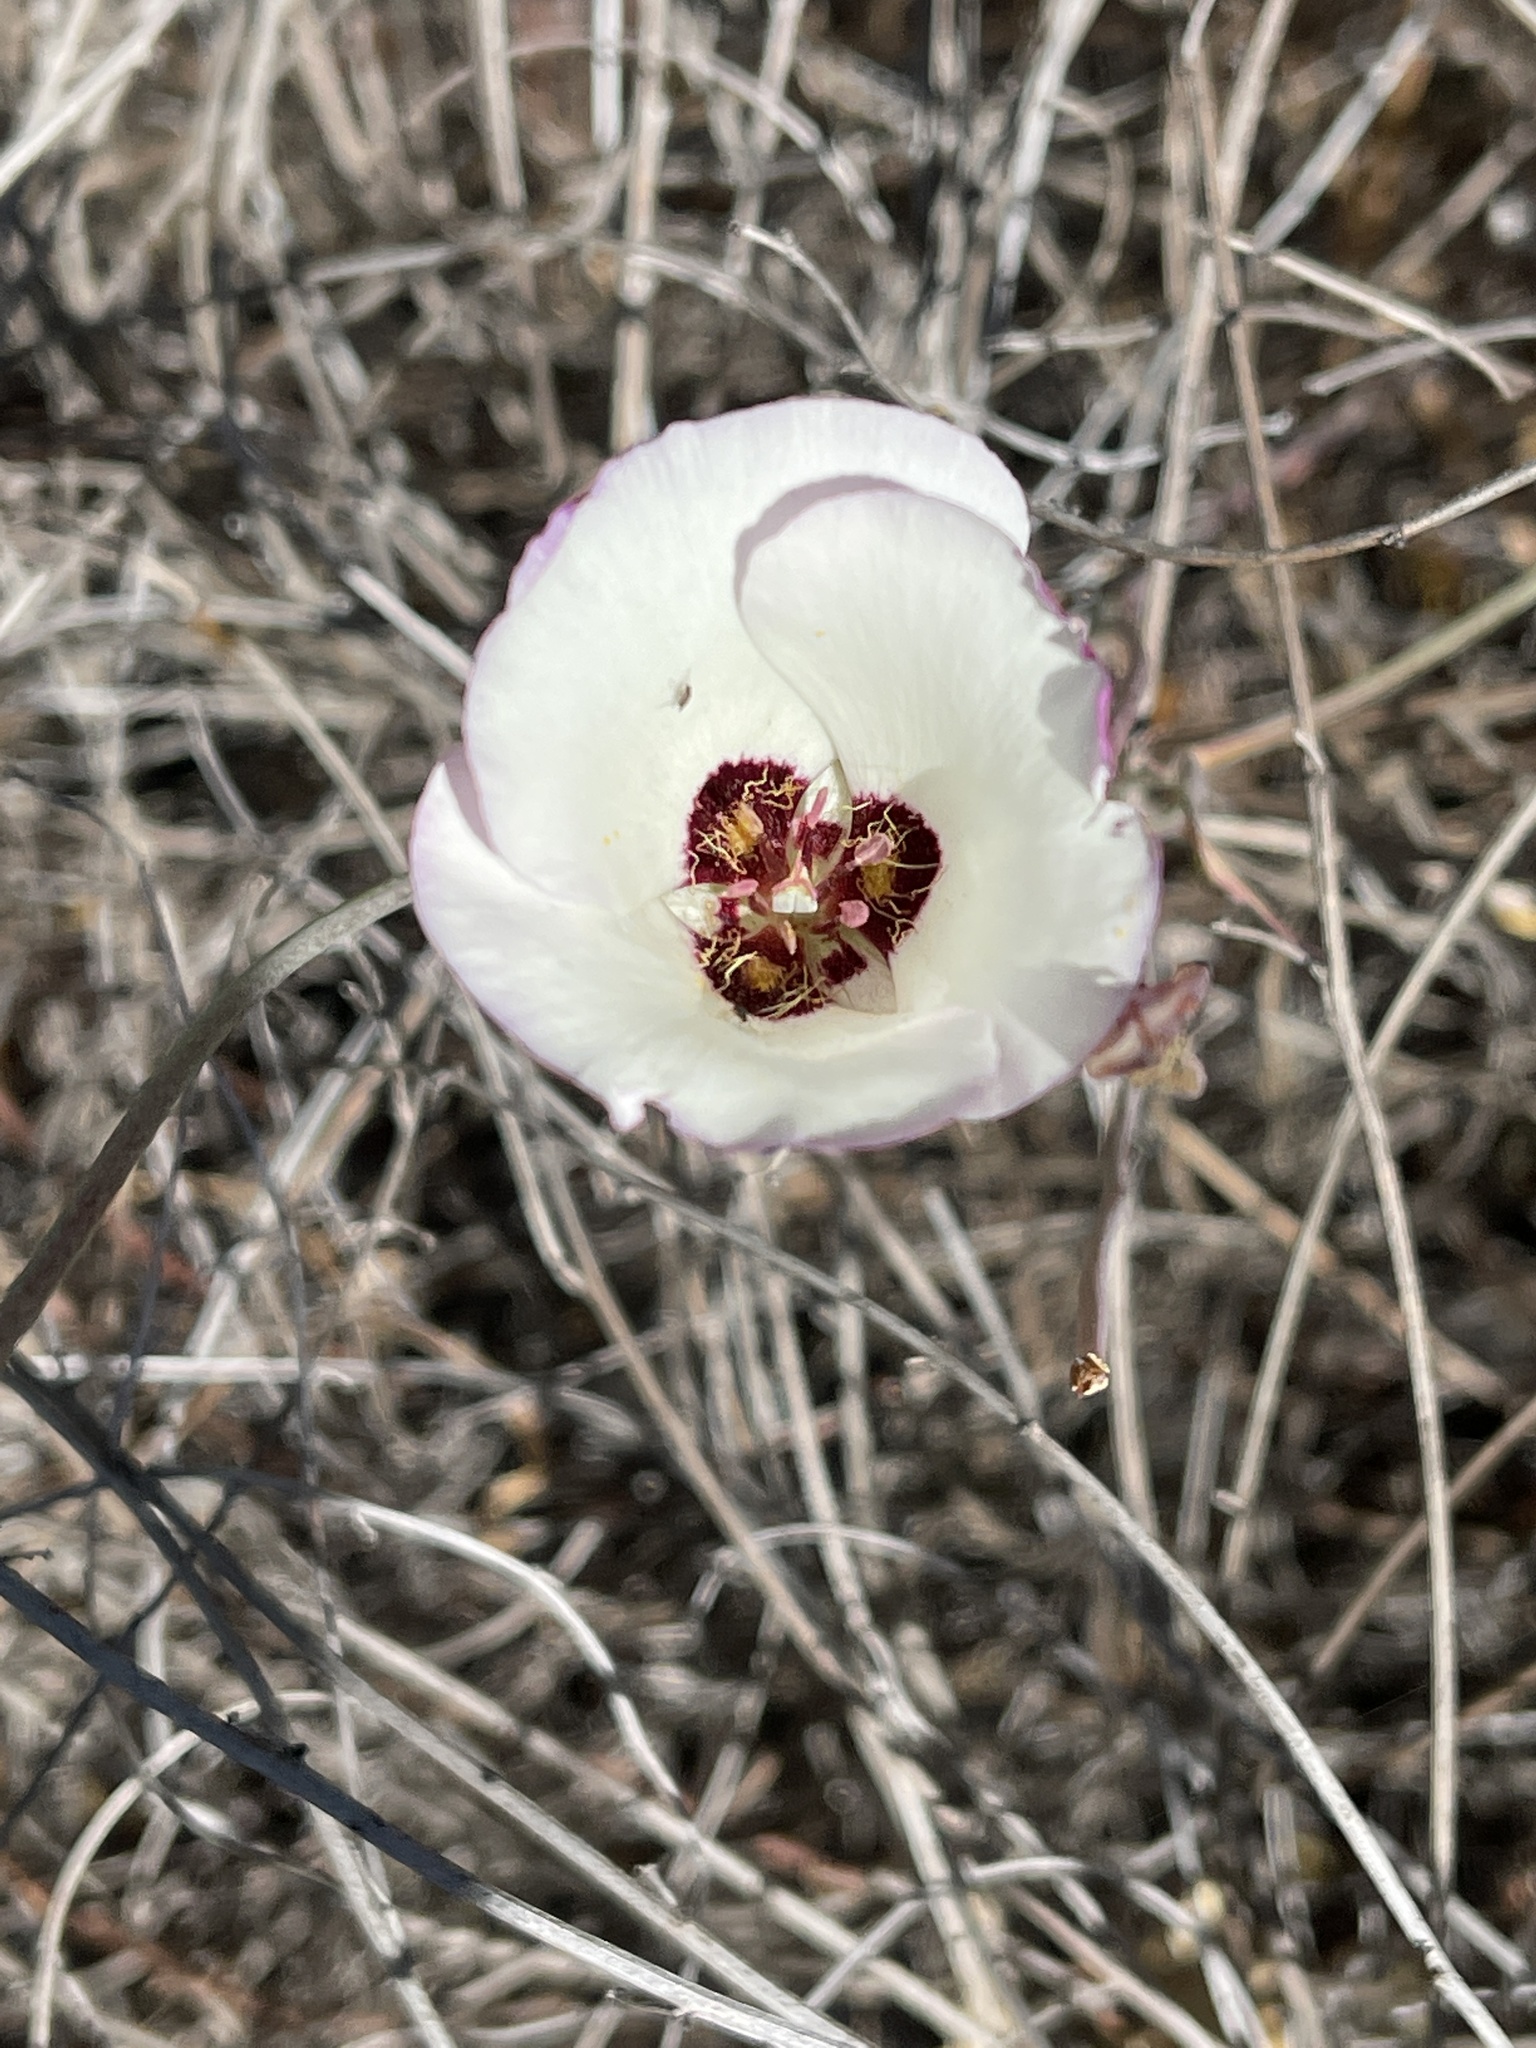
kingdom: Plantae
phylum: Tracheophyta
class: Liliopsida
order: Liliales
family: Liliaceae
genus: Calochortus
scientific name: Calochortus catalinae
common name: Catalina mariposa-lily
